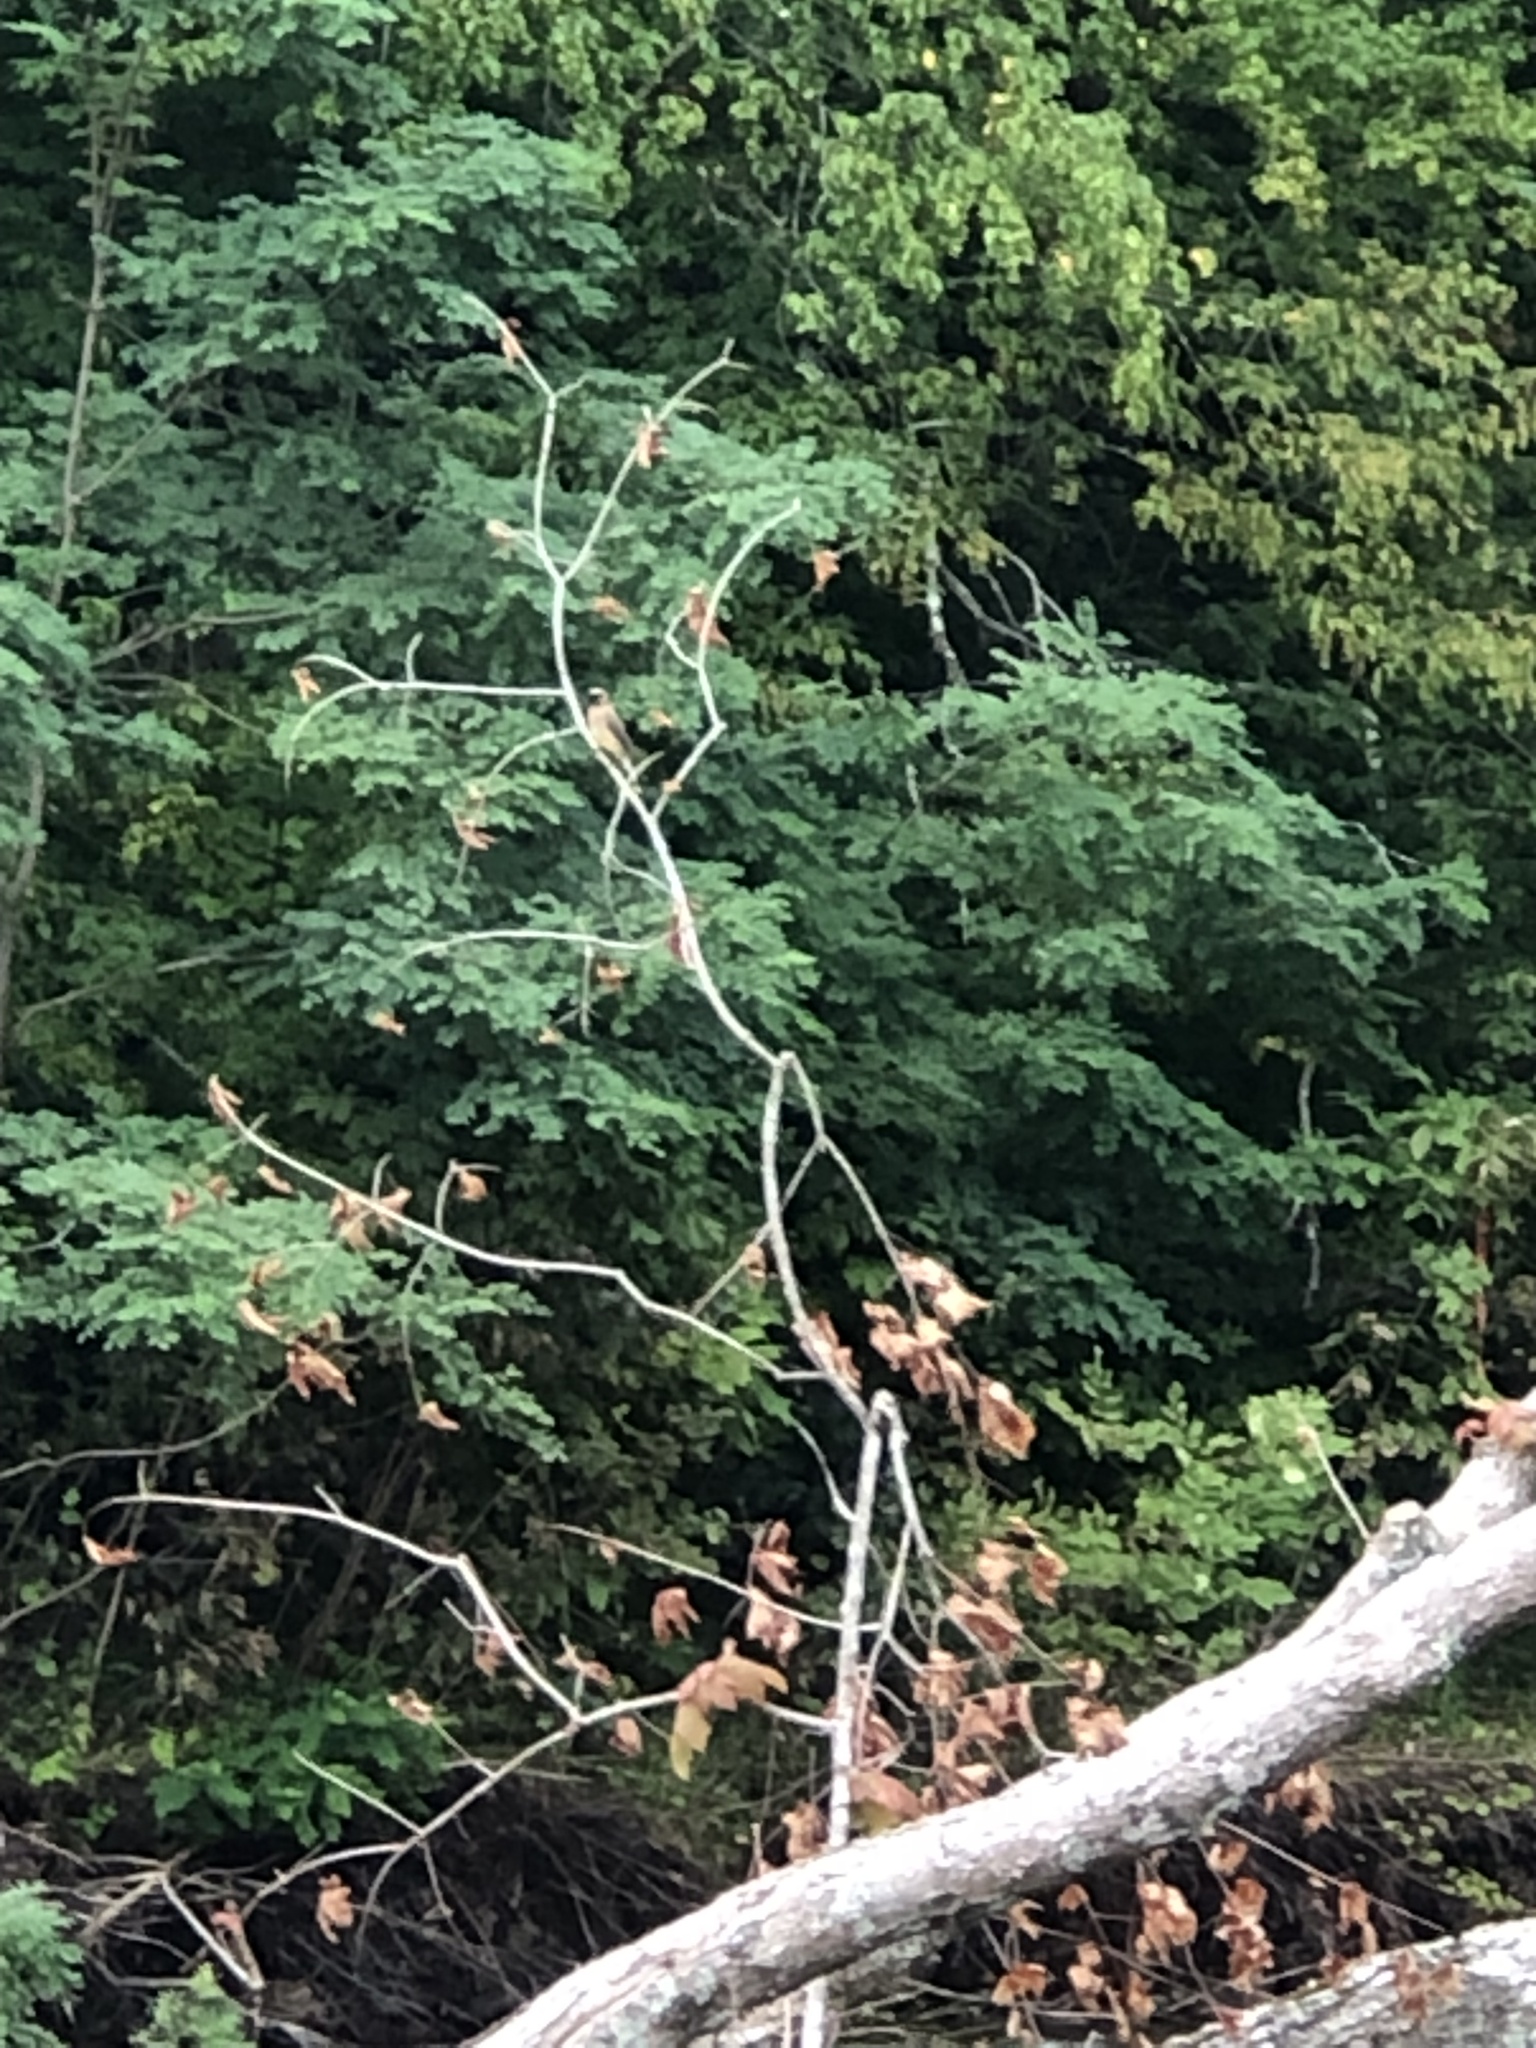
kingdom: Animalia
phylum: Chordata
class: Aves
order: Passeriformes
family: Bombycillidae
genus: Bombycilla
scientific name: Bombycilla cedrorum
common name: Cedar waxwing
